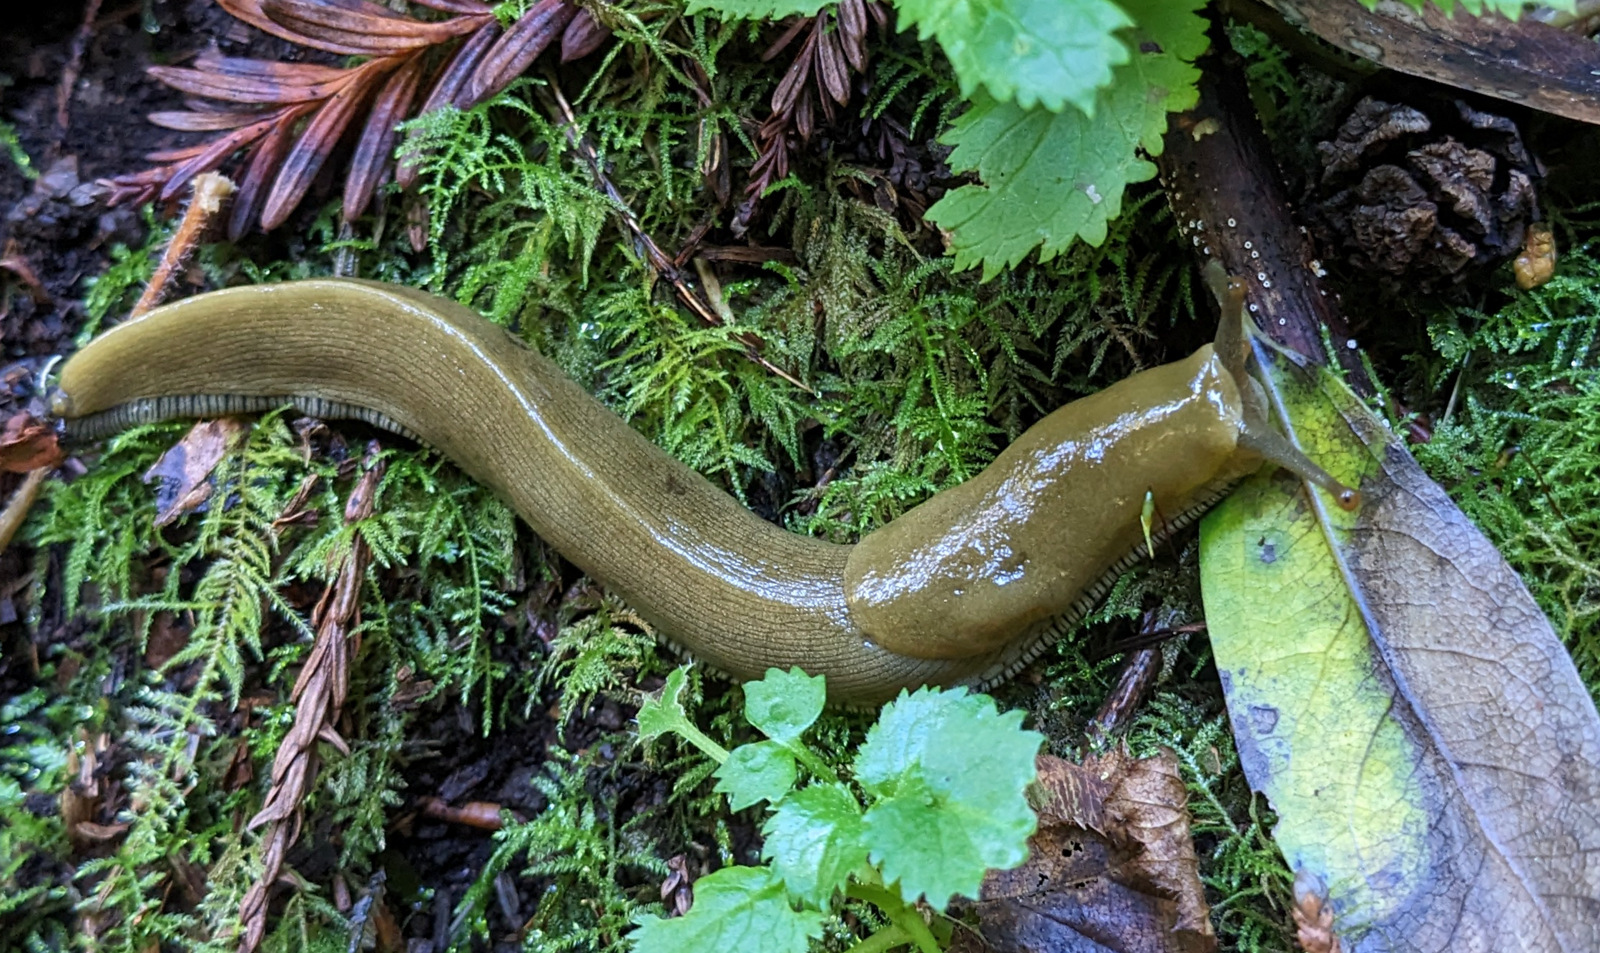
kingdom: Animalia
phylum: Mollusca
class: Gastropoda
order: Stylommatophora
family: Ariolimacidae
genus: Ariolimax
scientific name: Ariolimax buttoni
